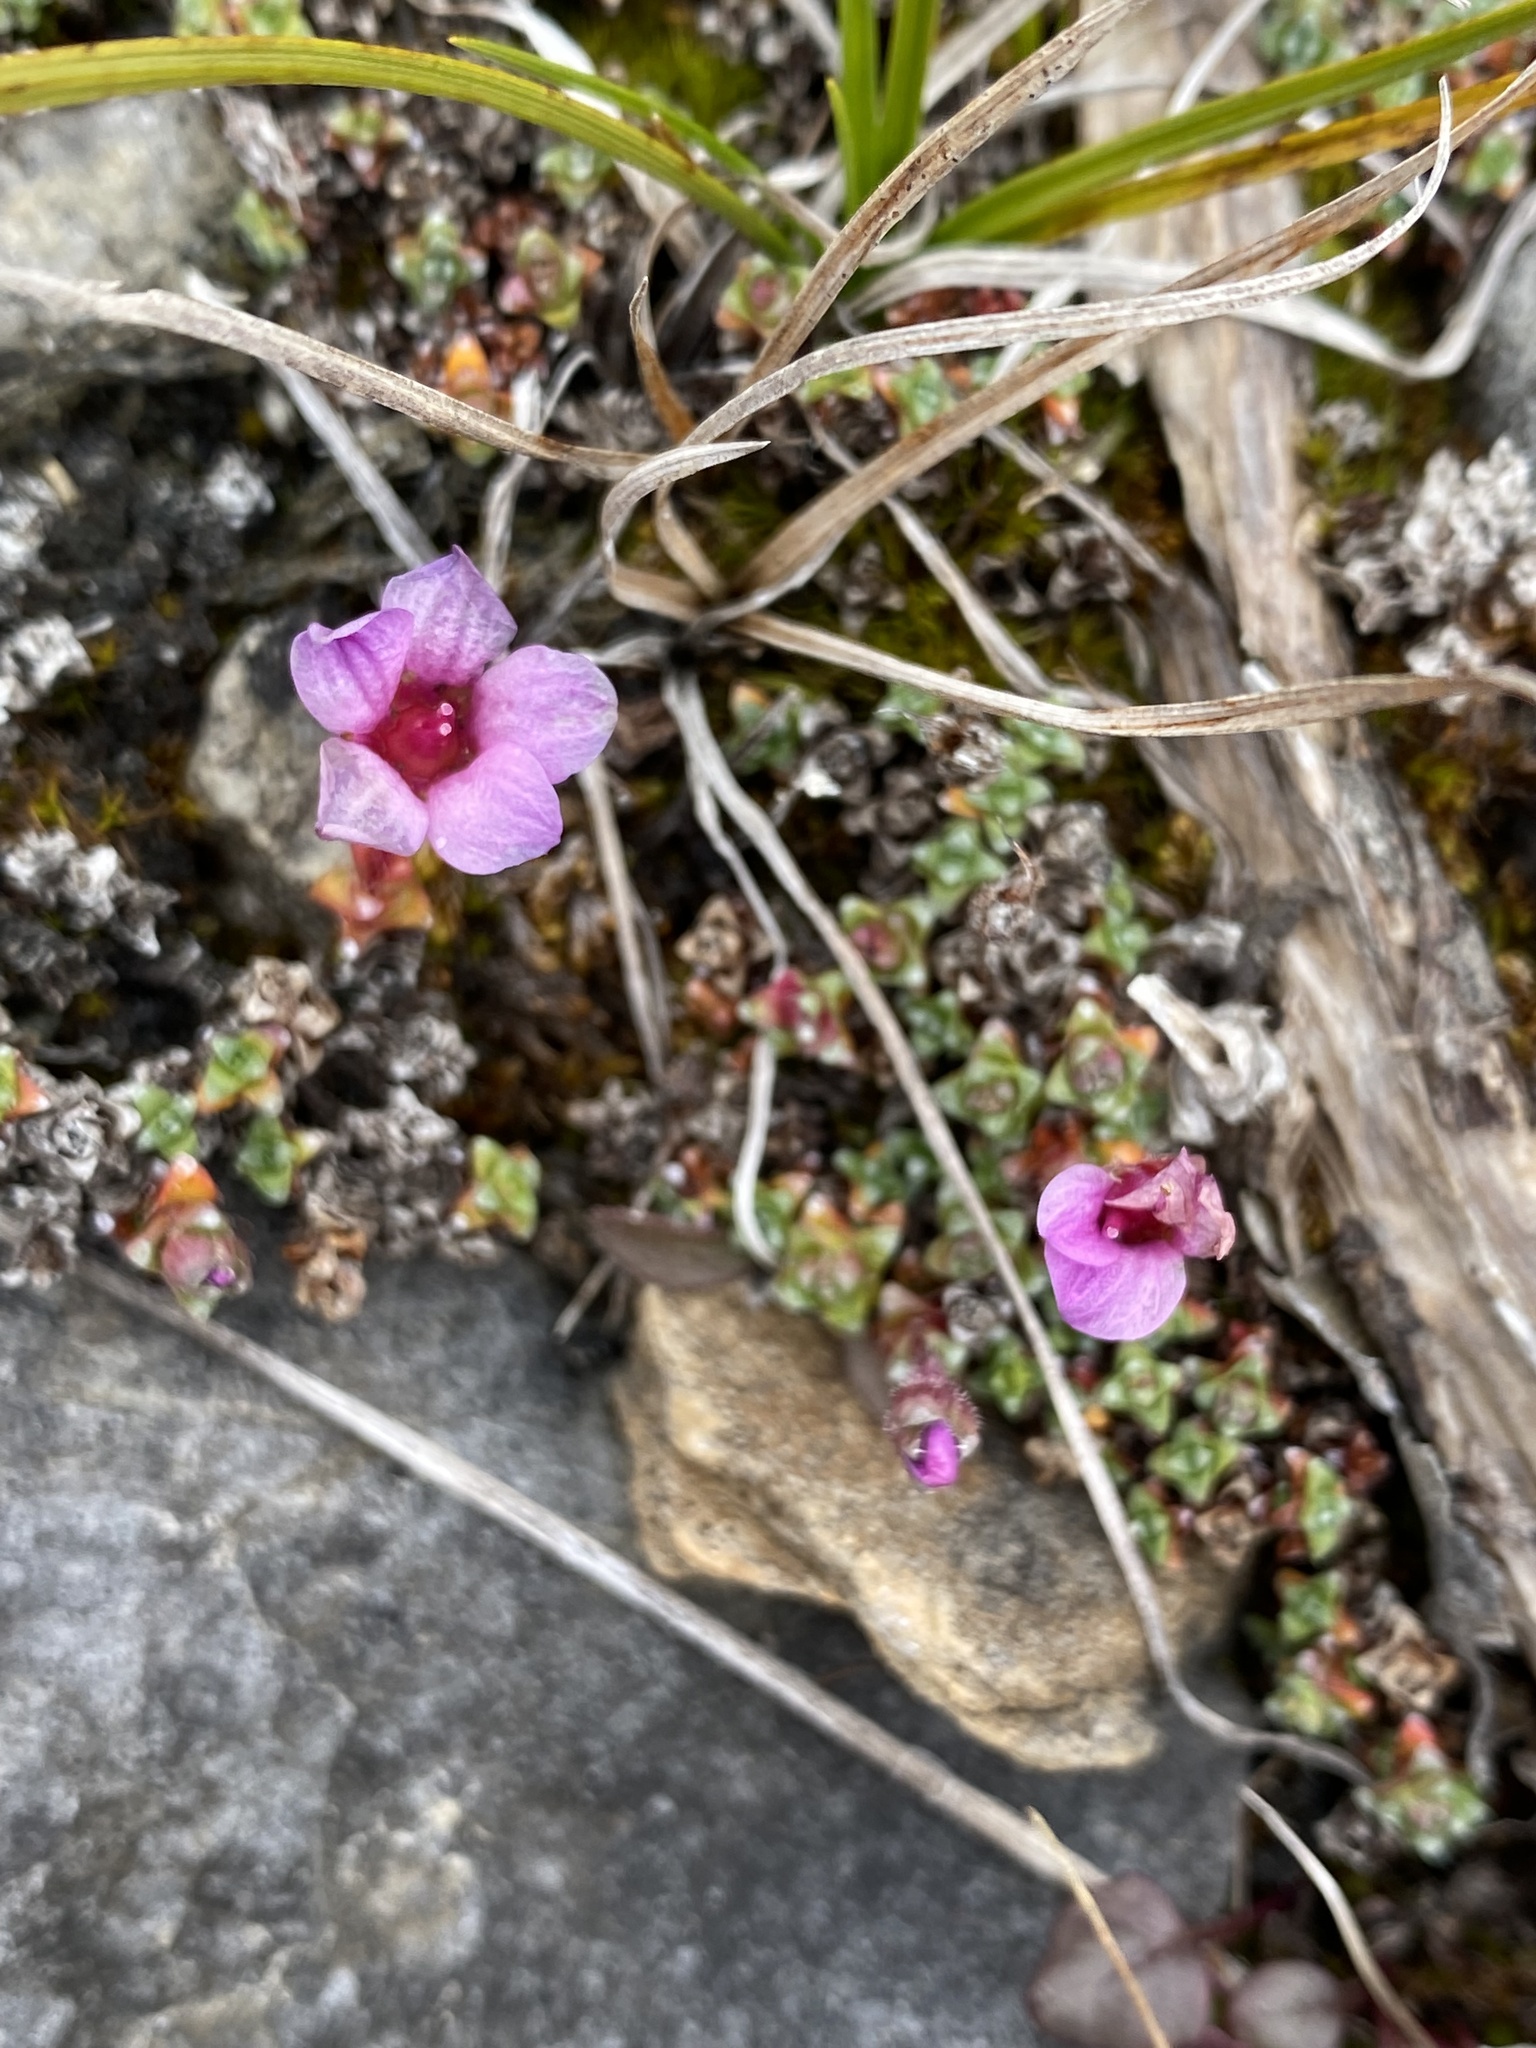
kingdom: Plantae
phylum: Tracheophyta
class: Magnoliopsida
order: Saxifragales
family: Saxifragaceae
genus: Saxifraga
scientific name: Saxifraga oppositifolia
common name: Purple saxifrage
